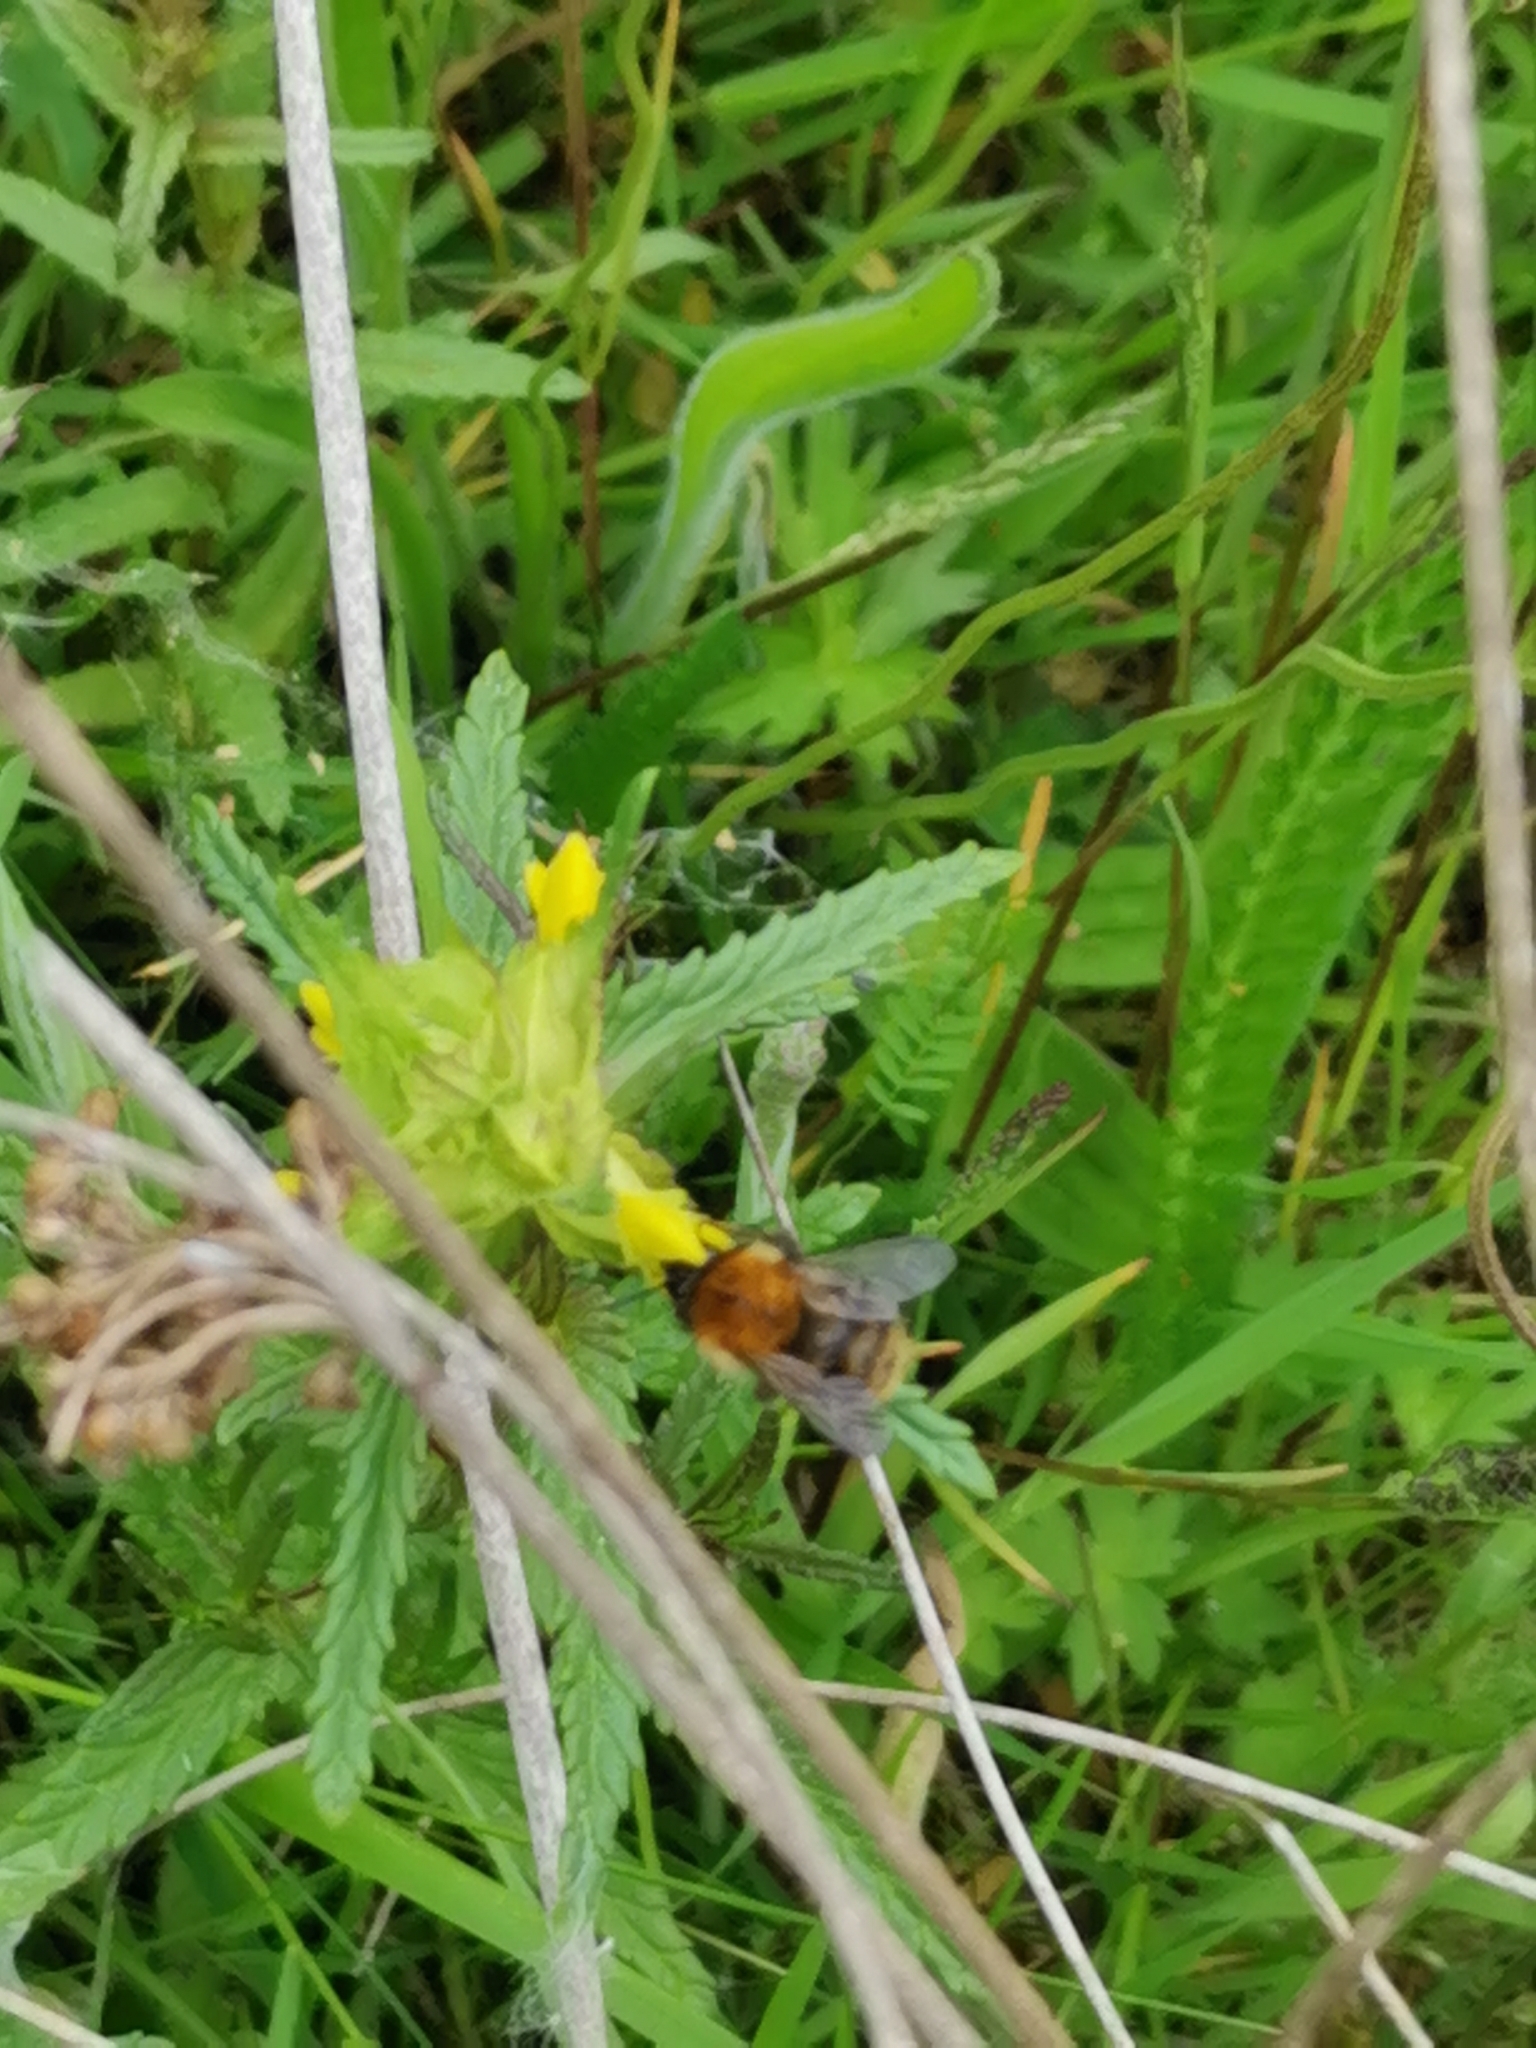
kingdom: Animalia
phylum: Arthropoda
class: Insecta
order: Hymenoptera
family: Apidae
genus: Bombus
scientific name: Bombus pascuorum
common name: Common carder bee
